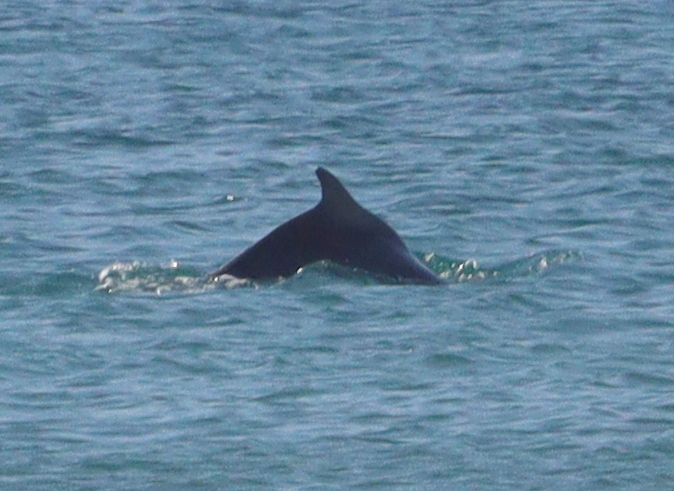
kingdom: Animalia
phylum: Chordata
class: Mammalia
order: Cetacea
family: Delphinidae
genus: Sousa
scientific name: Sousa plumbea
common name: Indian ocean humpback dolphin
